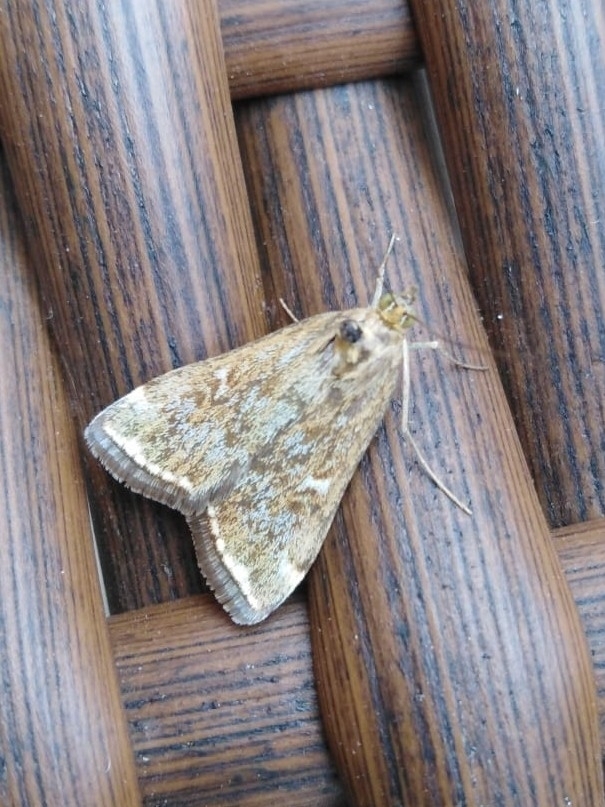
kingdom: Animalia
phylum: Arthropoda
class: Insecta
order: Lepidoptera
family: Crambidae
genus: Loxostege
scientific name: Loxostege sticticalis
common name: Crambid moth
